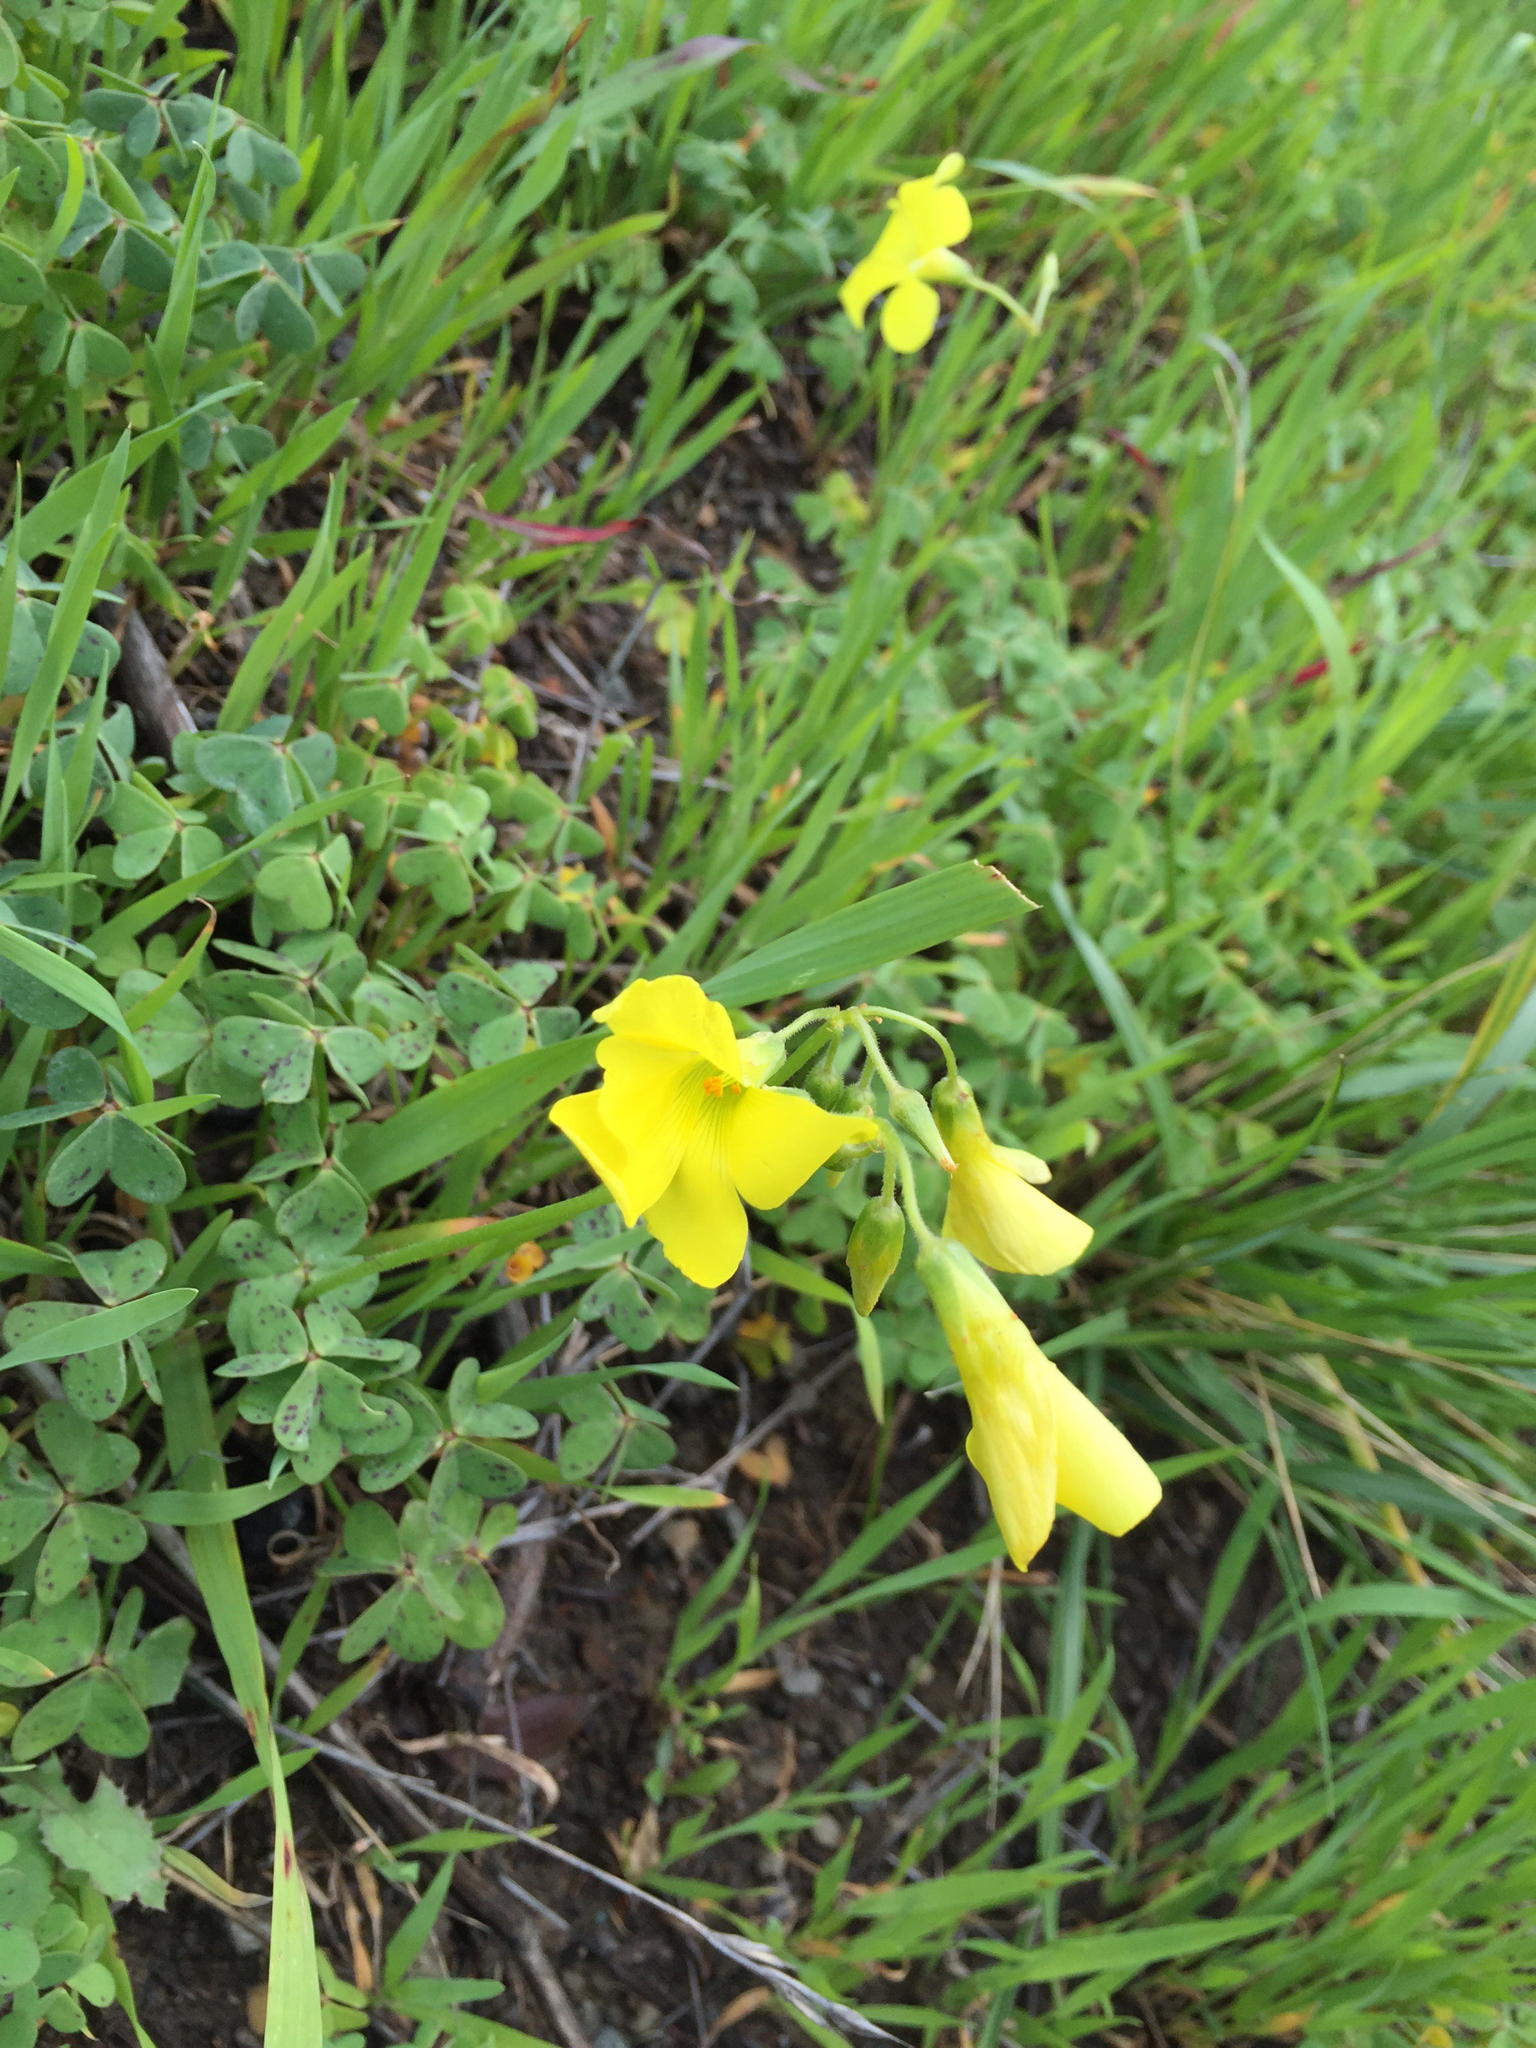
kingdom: Plantae
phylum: Tracheophyta
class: Magnoliopsida
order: Oxalidales
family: Oxalidaceae
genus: Oxalis
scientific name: Oxalis pes-caprae
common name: Bermuda-buttercup
